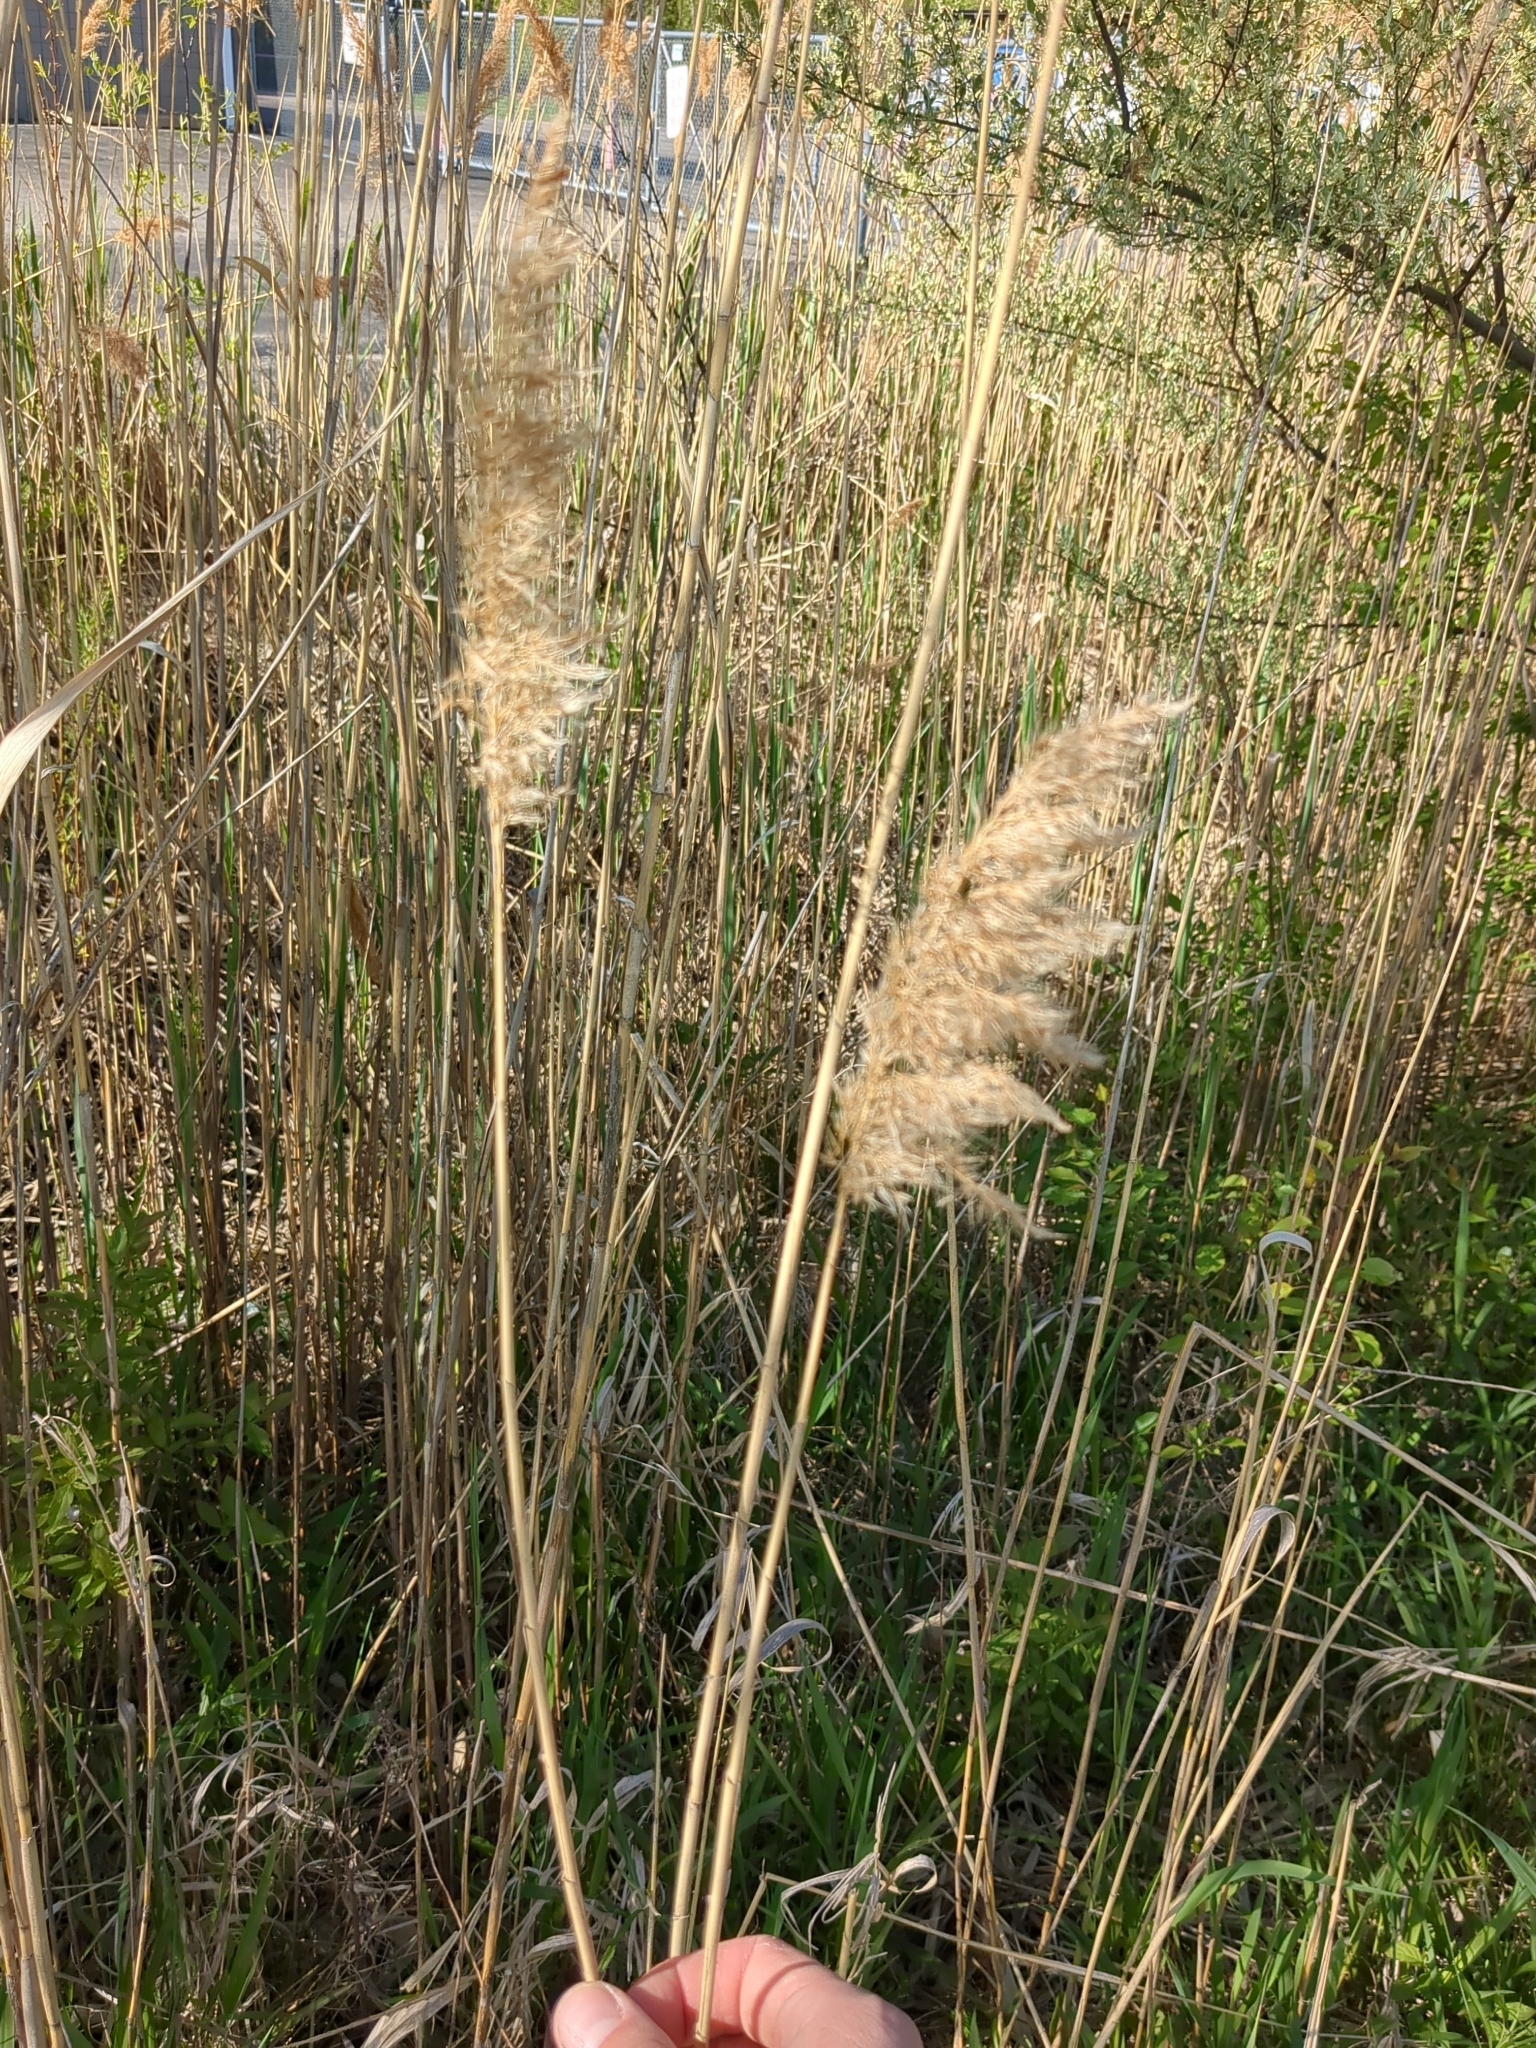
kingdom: Plantae
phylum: Tracheophyta
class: Liliopsida
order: Poales
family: Poaceae
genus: Phragmites
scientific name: Phragmites australis
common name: Common reed
